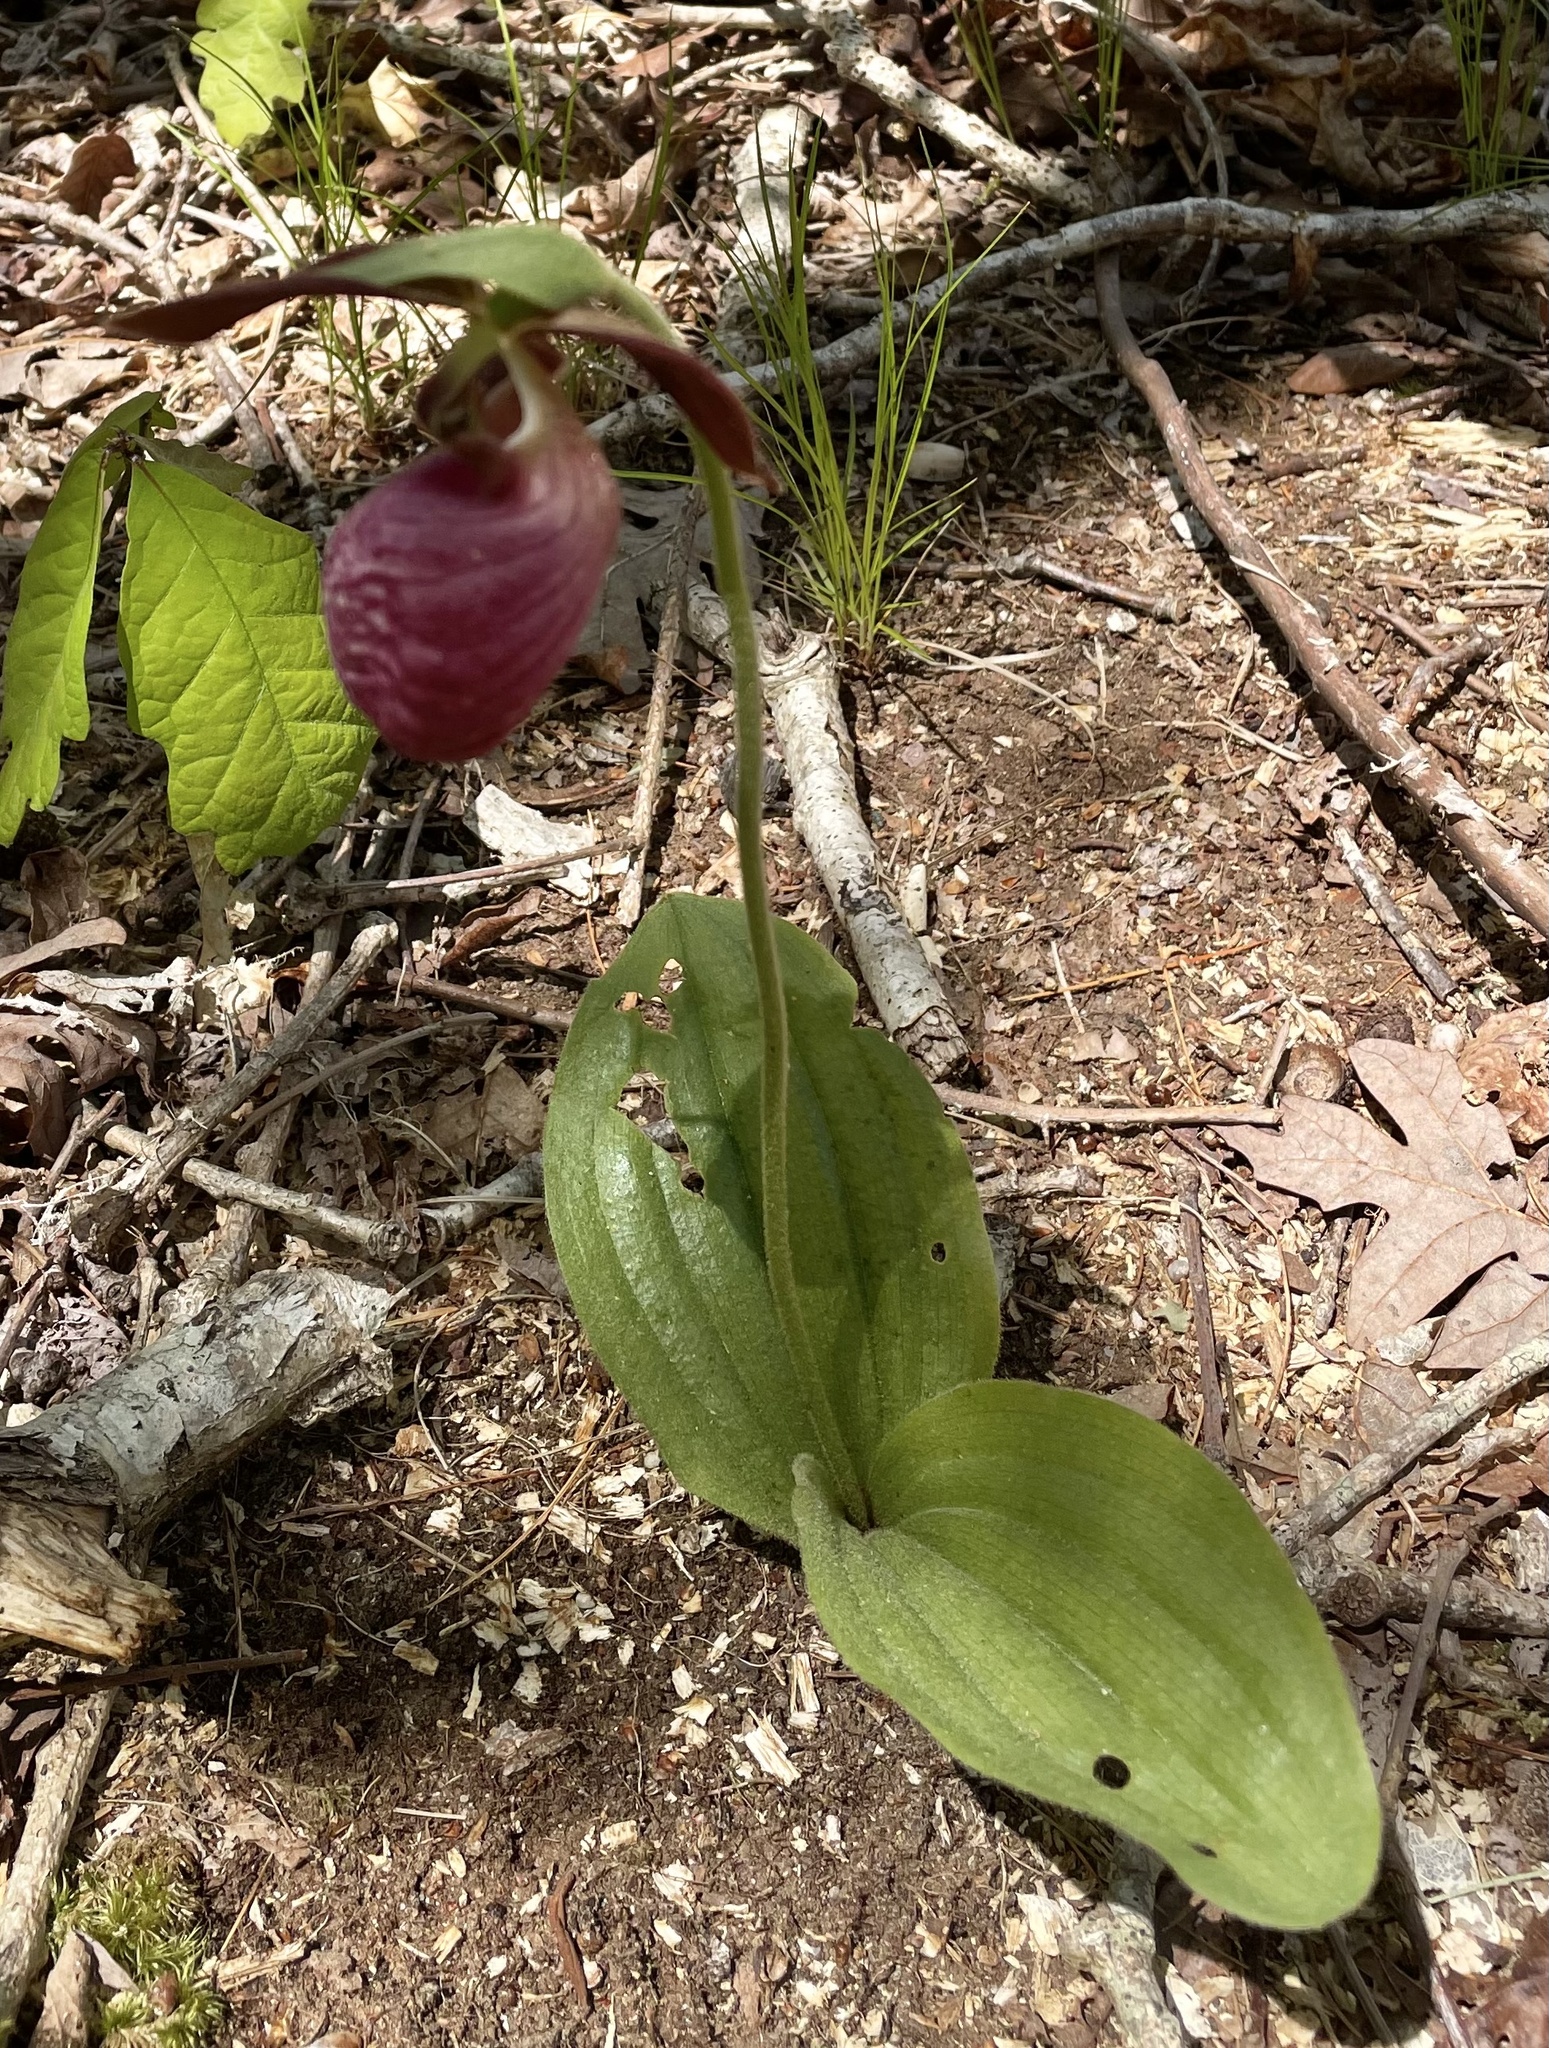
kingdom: Plantae
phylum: Tracheophyta
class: Liliopsida
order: Asparagales
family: Orchidaceae
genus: Cypripedium
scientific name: Cypripedium acaule
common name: Pink lady's-slipper
